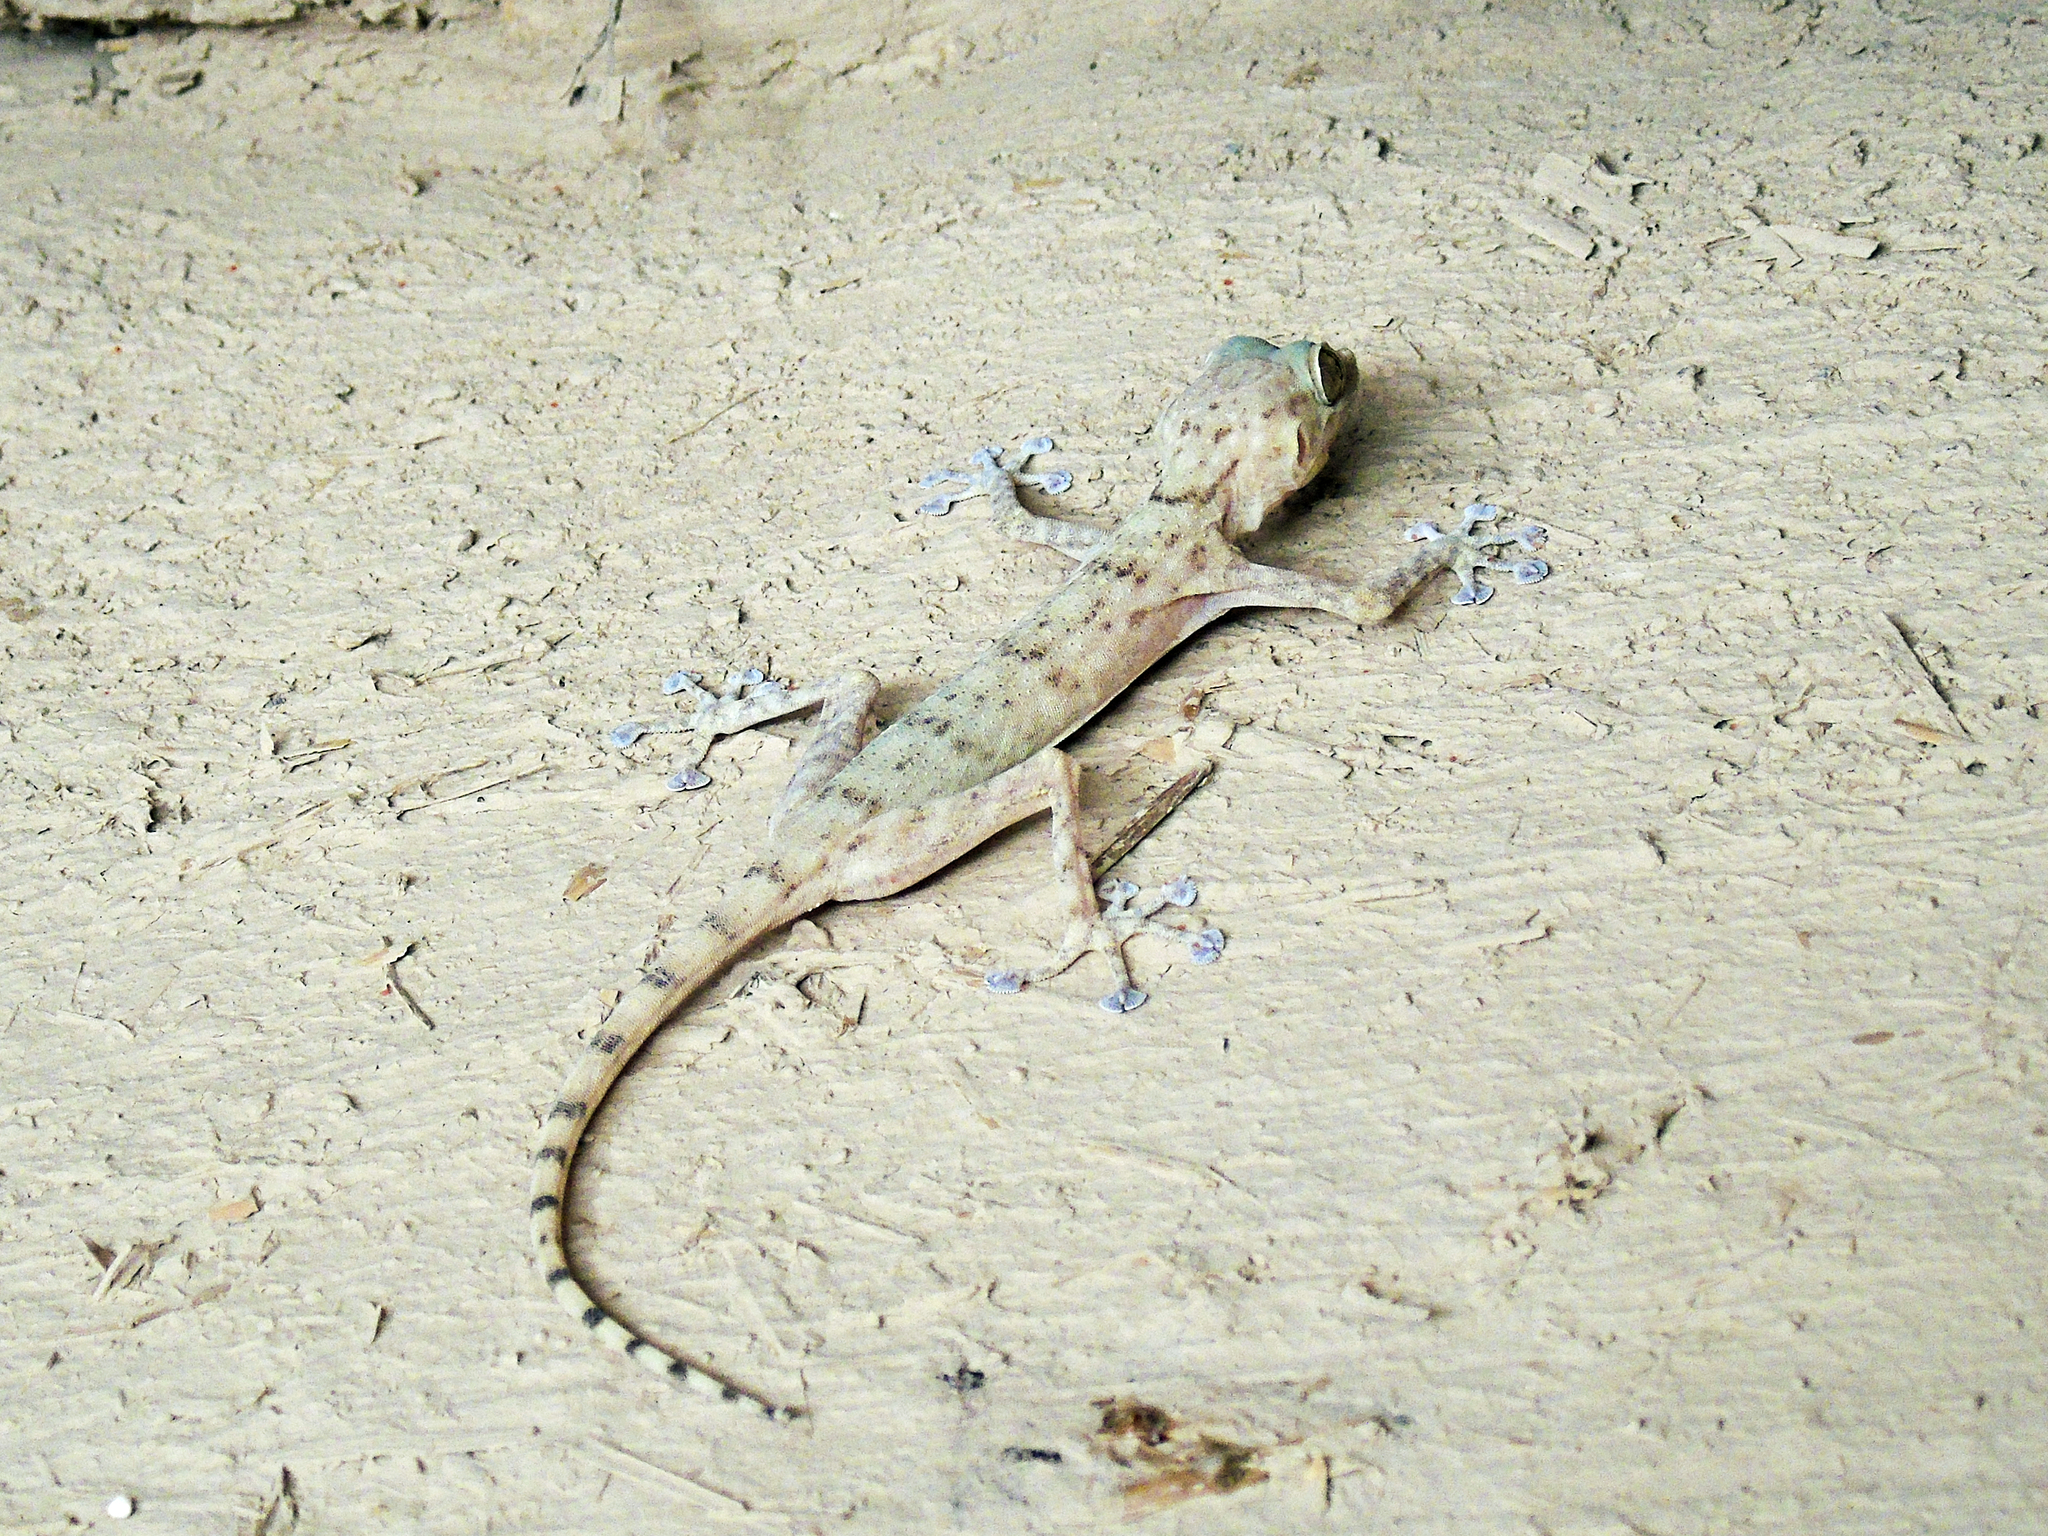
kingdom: Animalia
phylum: Chordata
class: Squamata
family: Phyllodactylidae
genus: Ptyodactylus
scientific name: Ptyodactylus ruusaljibalicus
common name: Ruus al jibal fan-footed gecko
